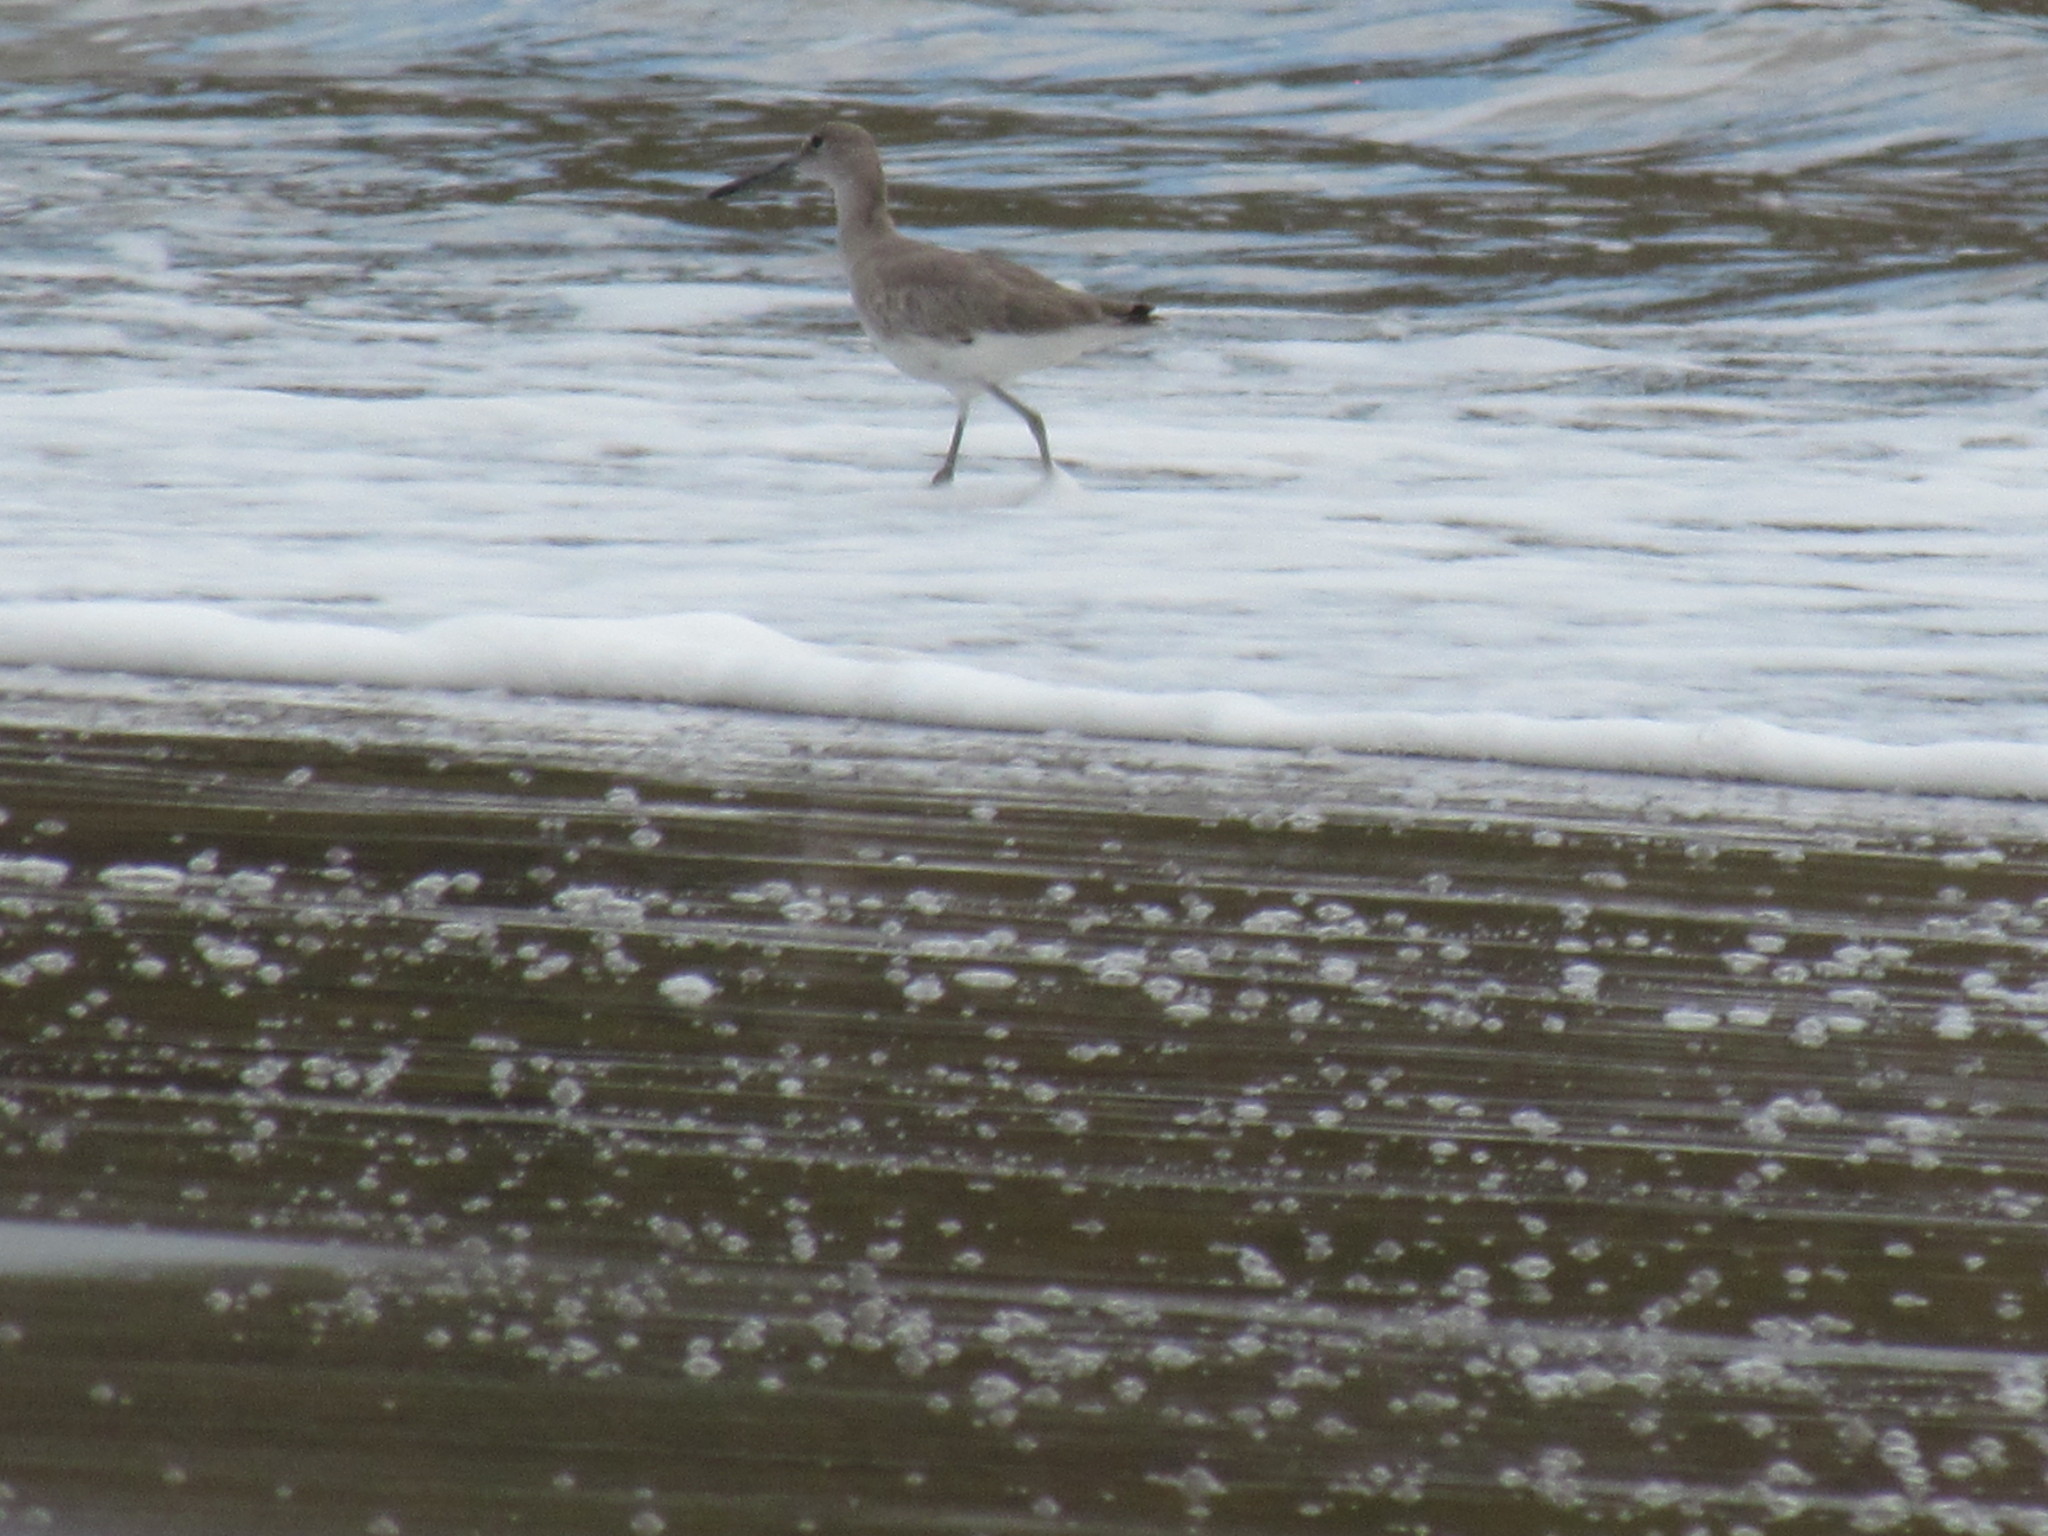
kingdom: Animalia
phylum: Chordata
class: Aves
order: Charadriiformes
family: Scolopacidae
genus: Tringa
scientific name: Tringa semipalmata
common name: Willet
